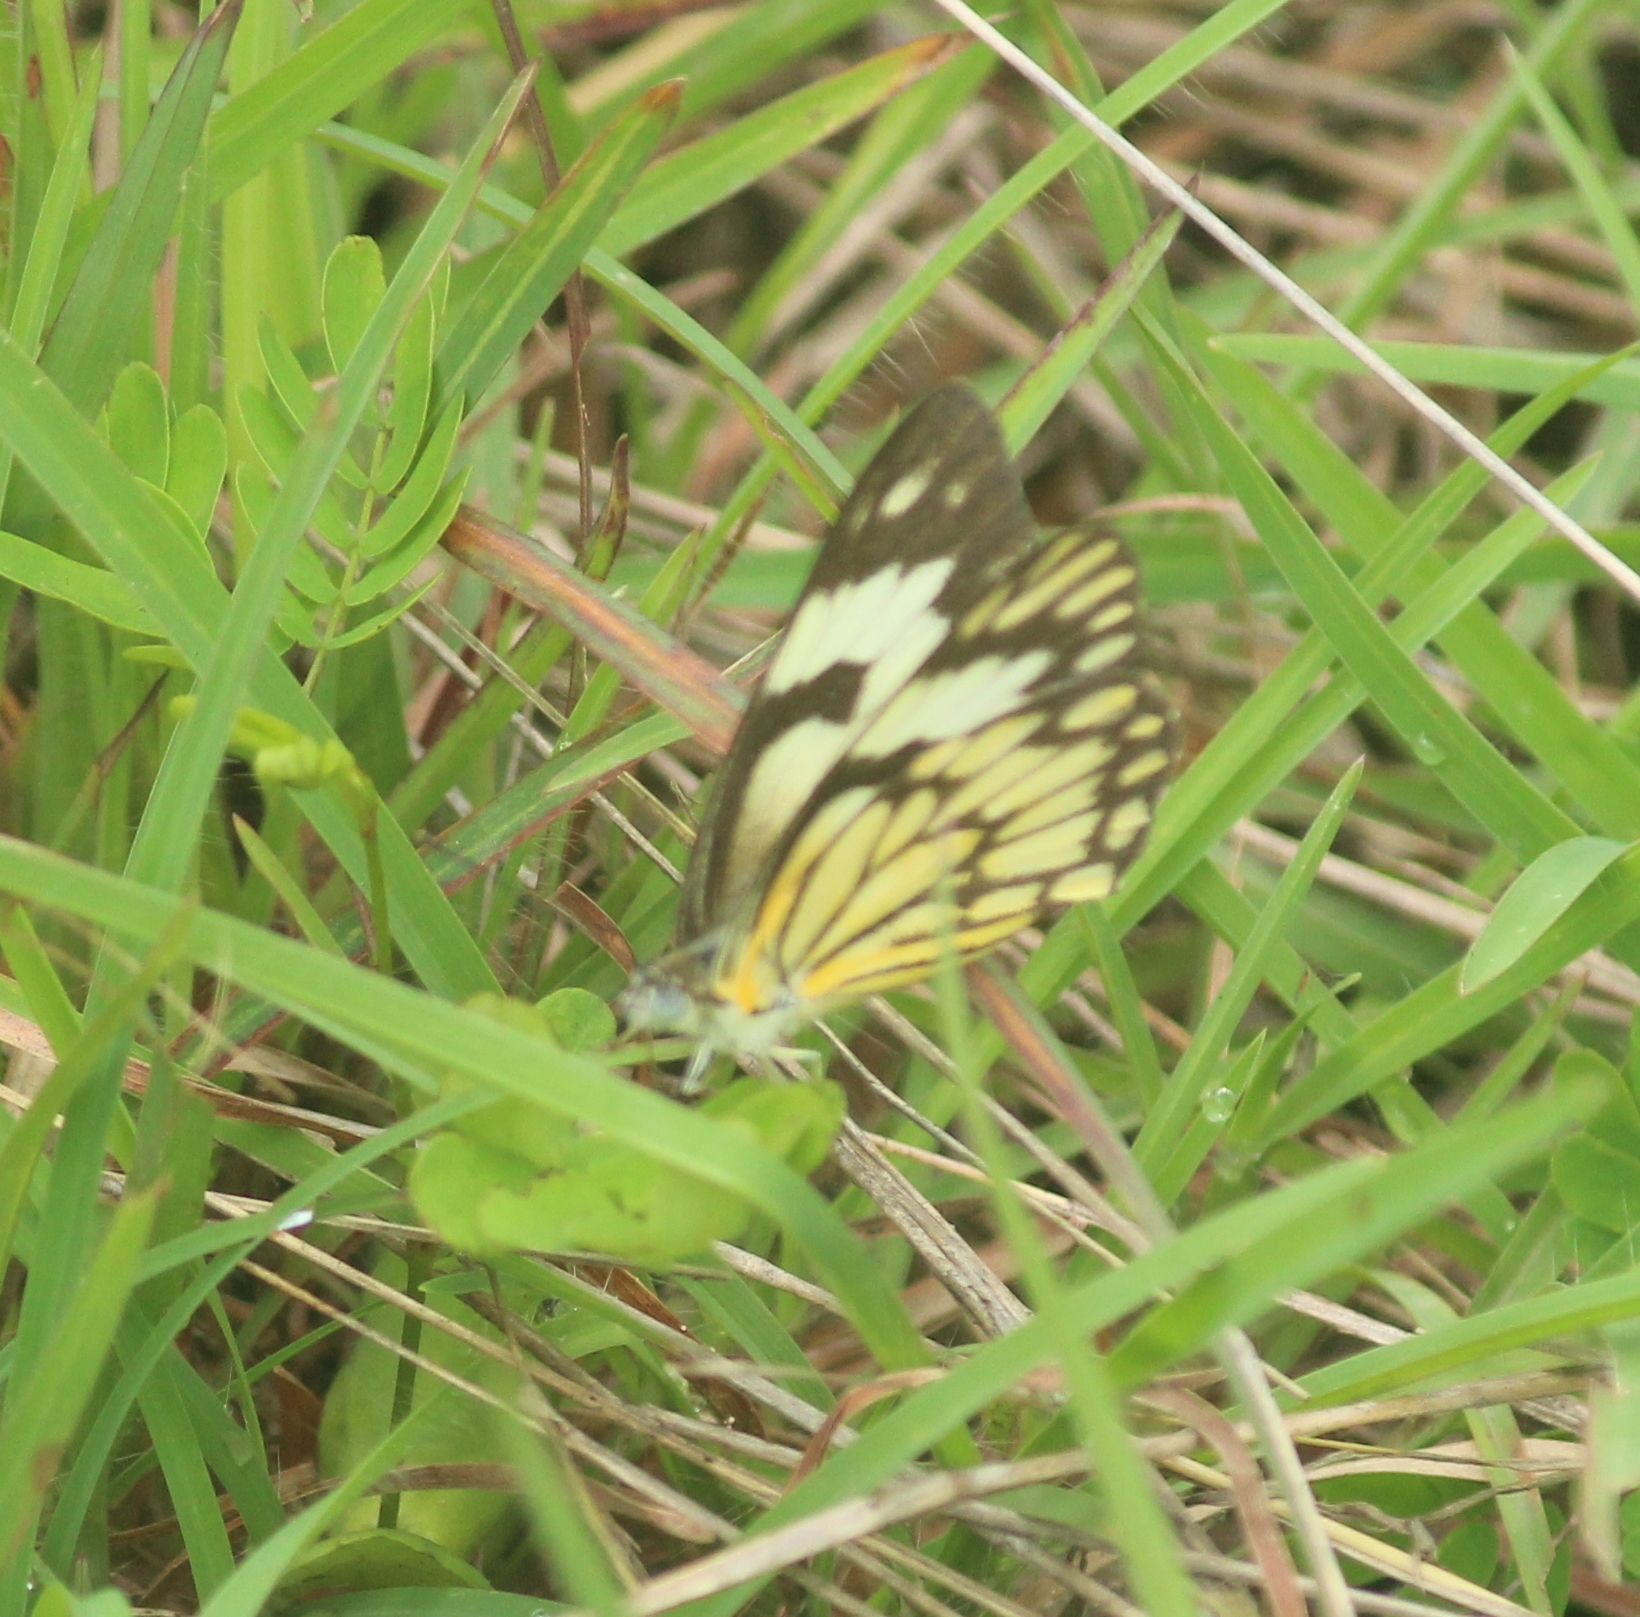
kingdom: Animalia
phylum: Arthropoda
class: Insecta
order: Lepidoptera
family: Pieridae
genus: Belenois
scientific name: Belenois aurota
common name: Brown-veined white
